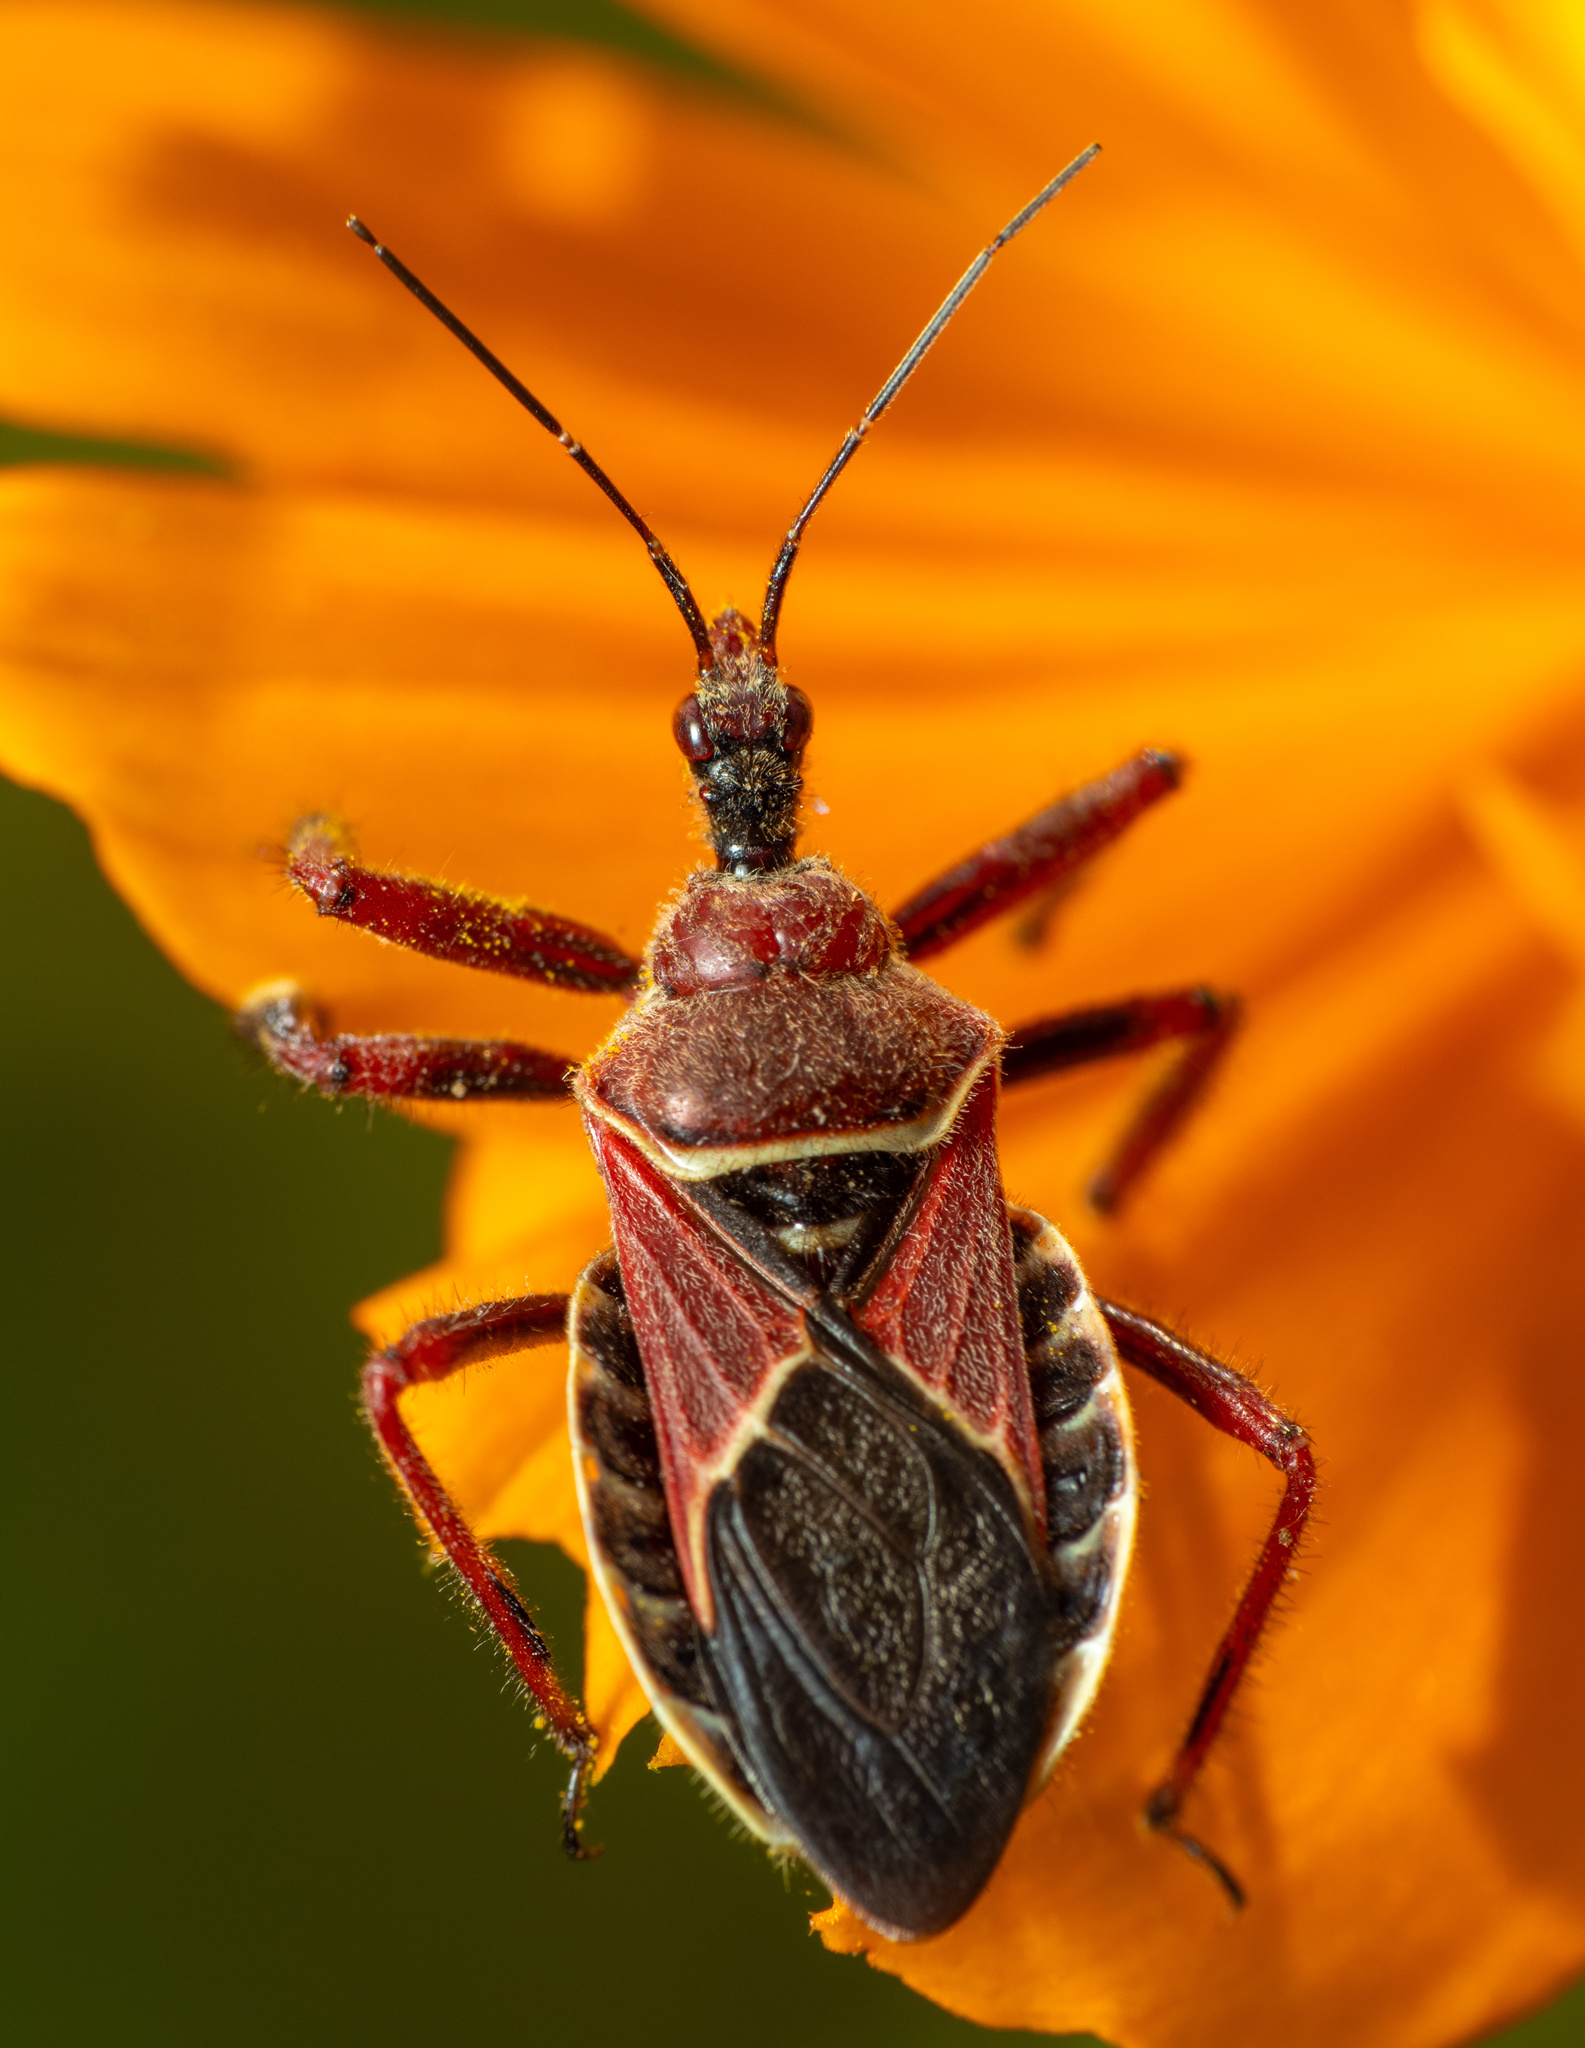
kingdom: Animalia
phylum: Arthropoda
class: Insecta
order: Hemiptera
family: Reduviidae
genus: Apiomerus
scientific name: Apiomerus spissipes
